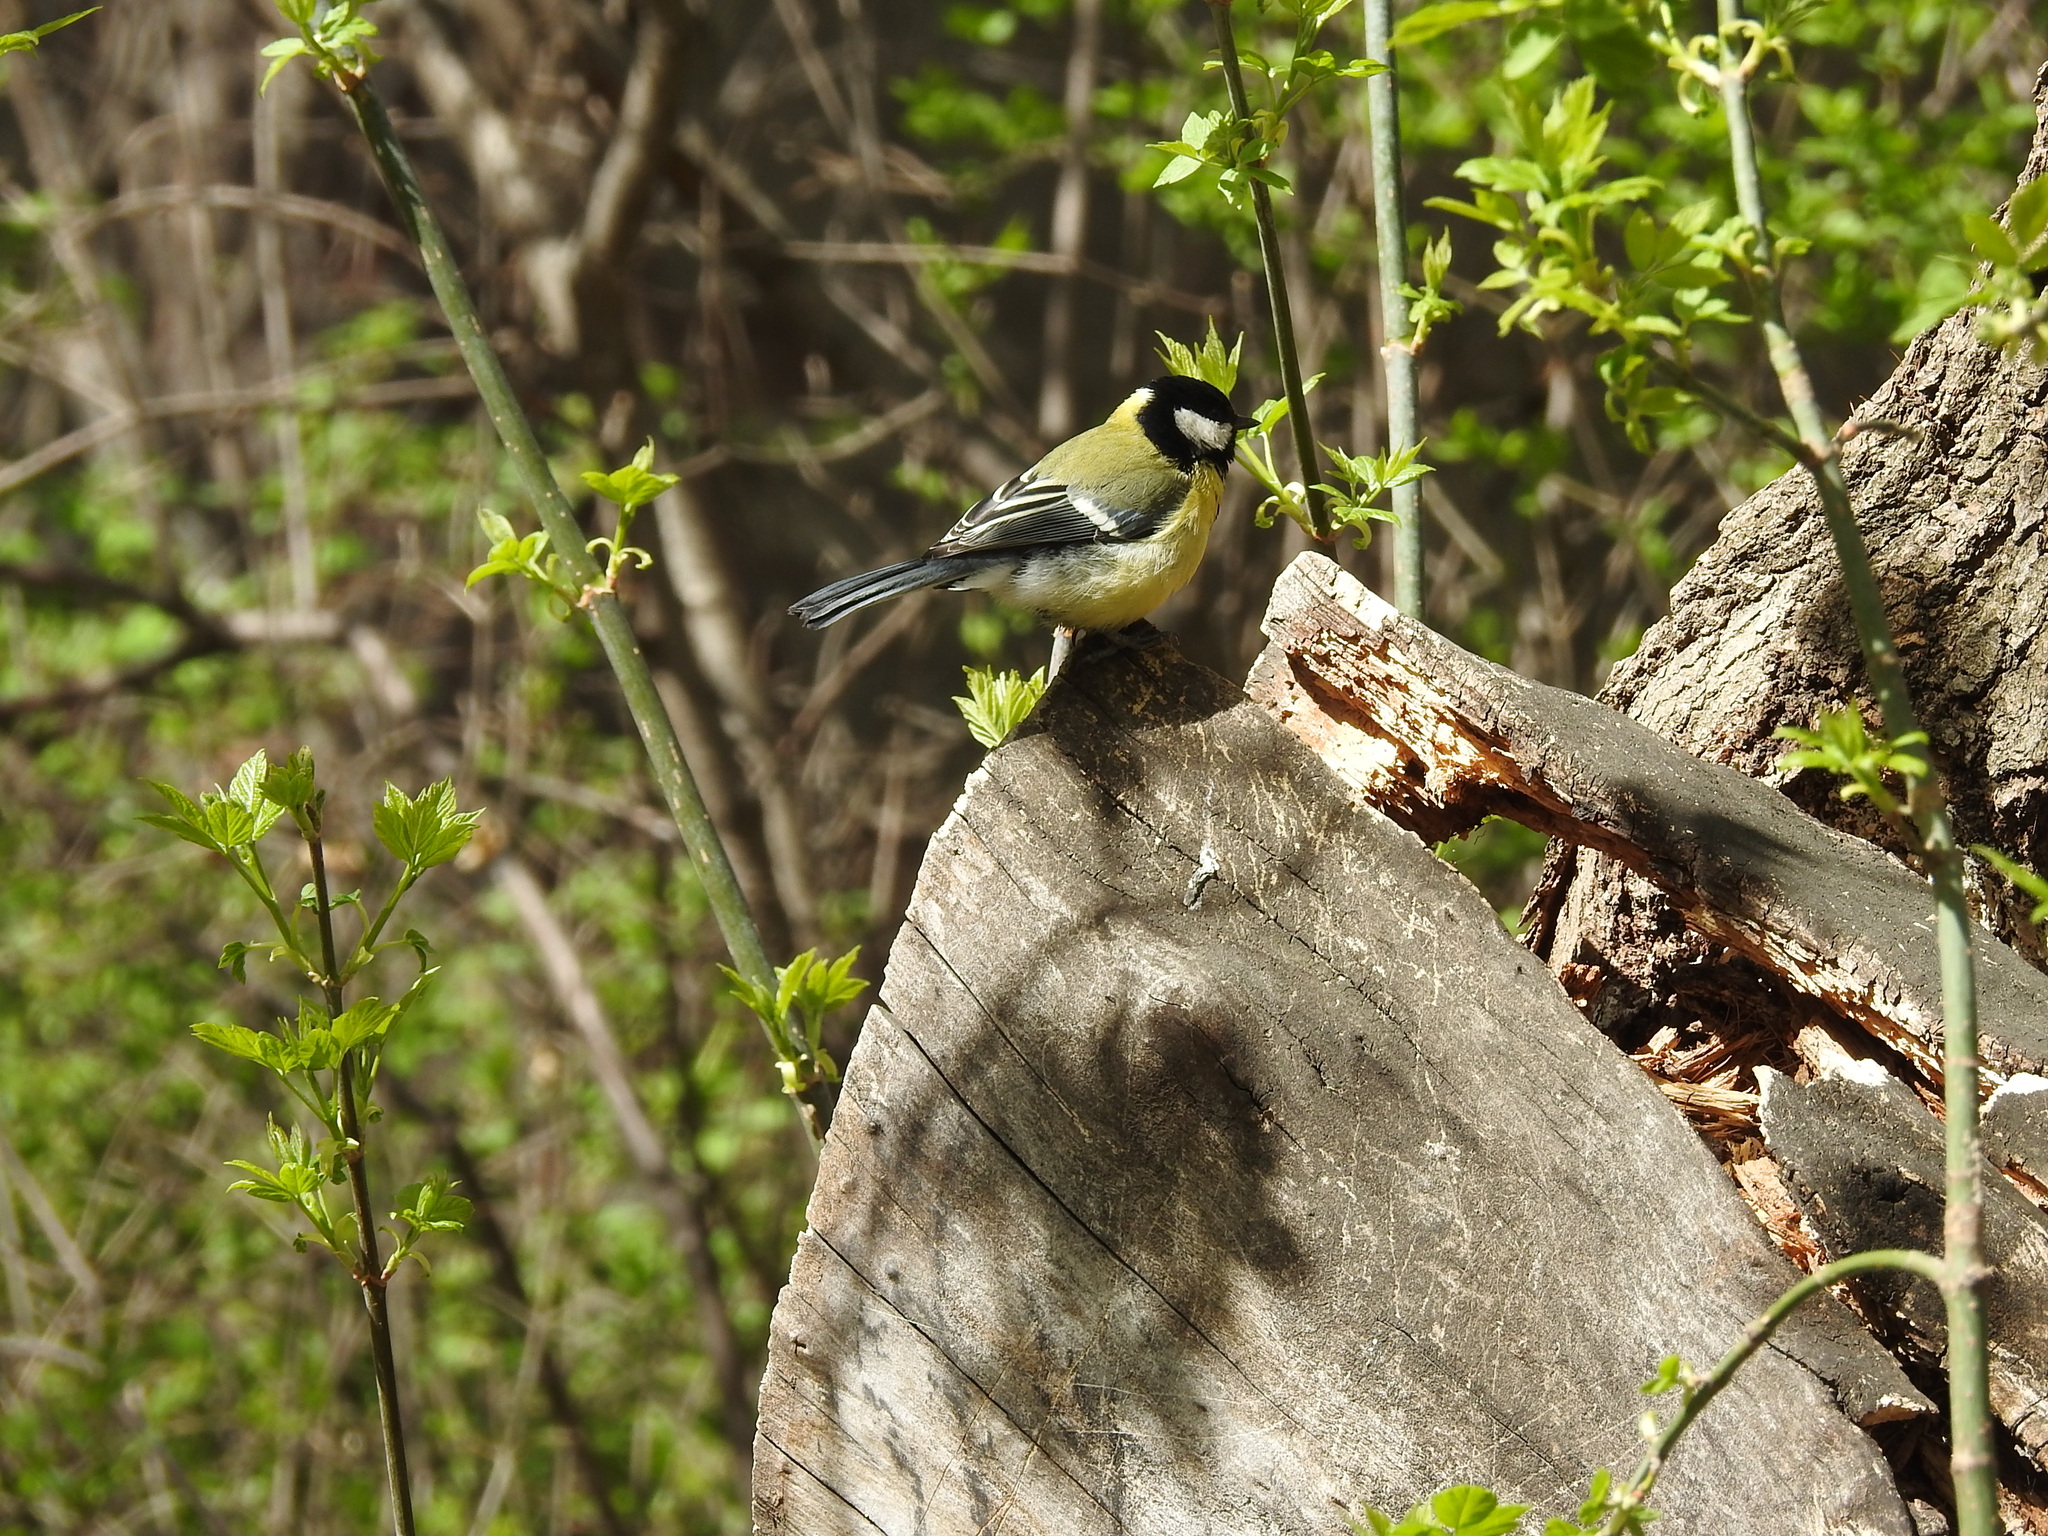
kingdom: Animalia
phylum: Chordata
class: Aves
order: Passeriformes
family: Paridae
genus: Parus
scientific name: Parus major
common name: Great tit
